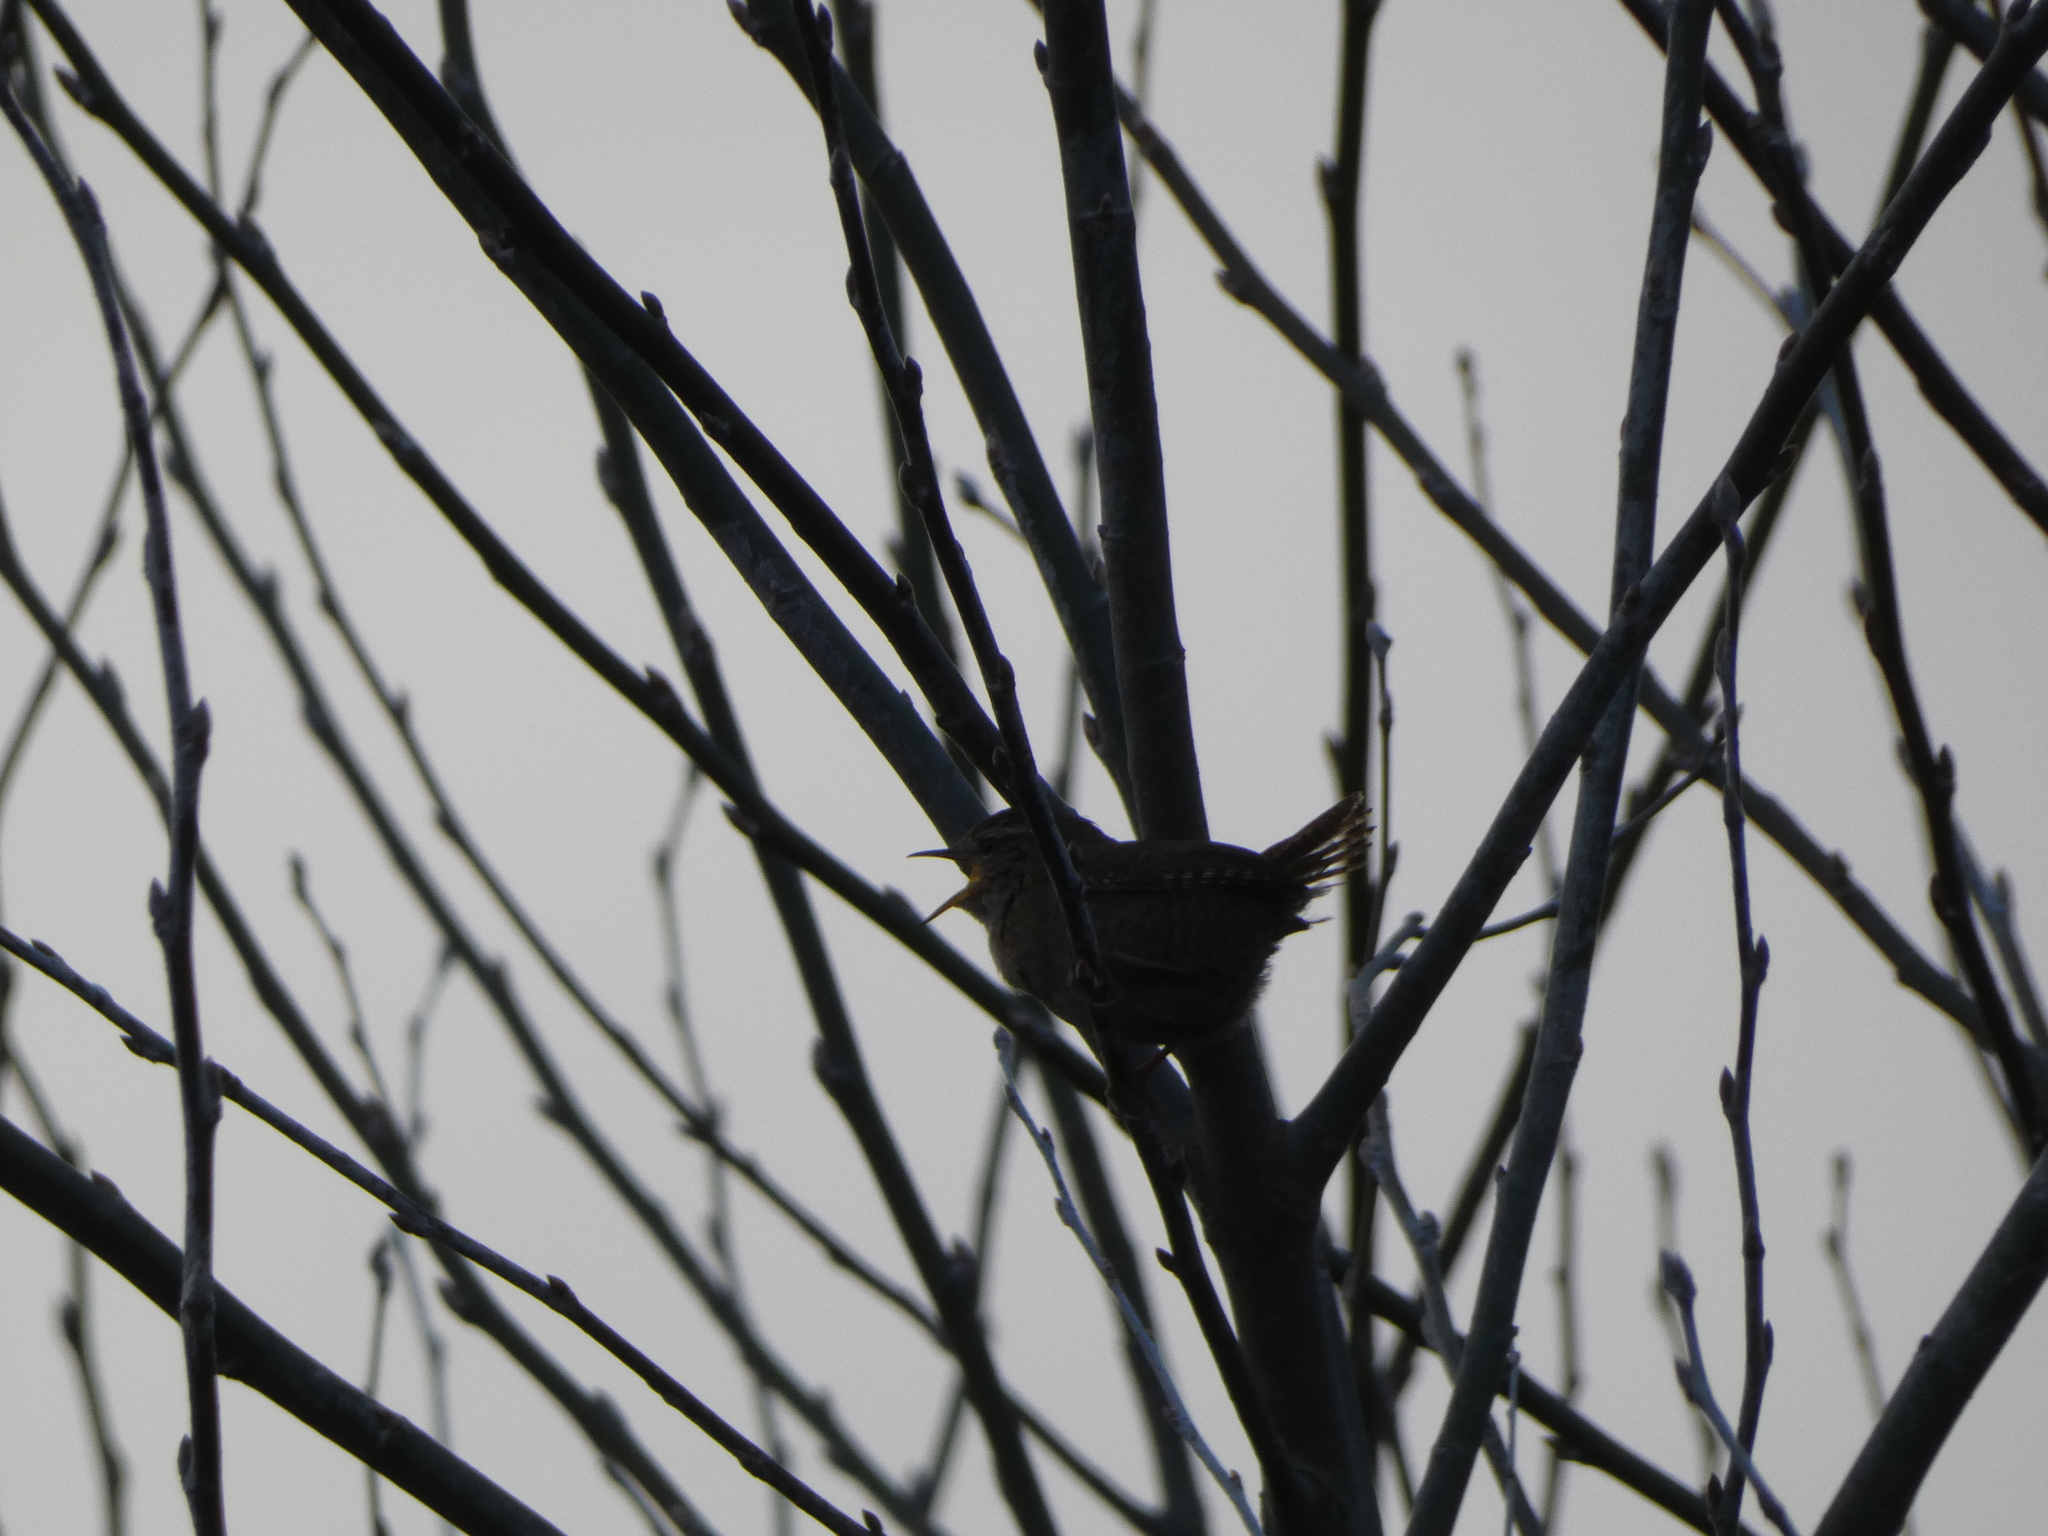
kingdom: Animalia
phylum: Chordata
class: Aves
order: Passeriformes
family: Troglodytidae
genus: Troglodytes
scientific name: Troglodytes troglodytes
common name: Eurasian wren
